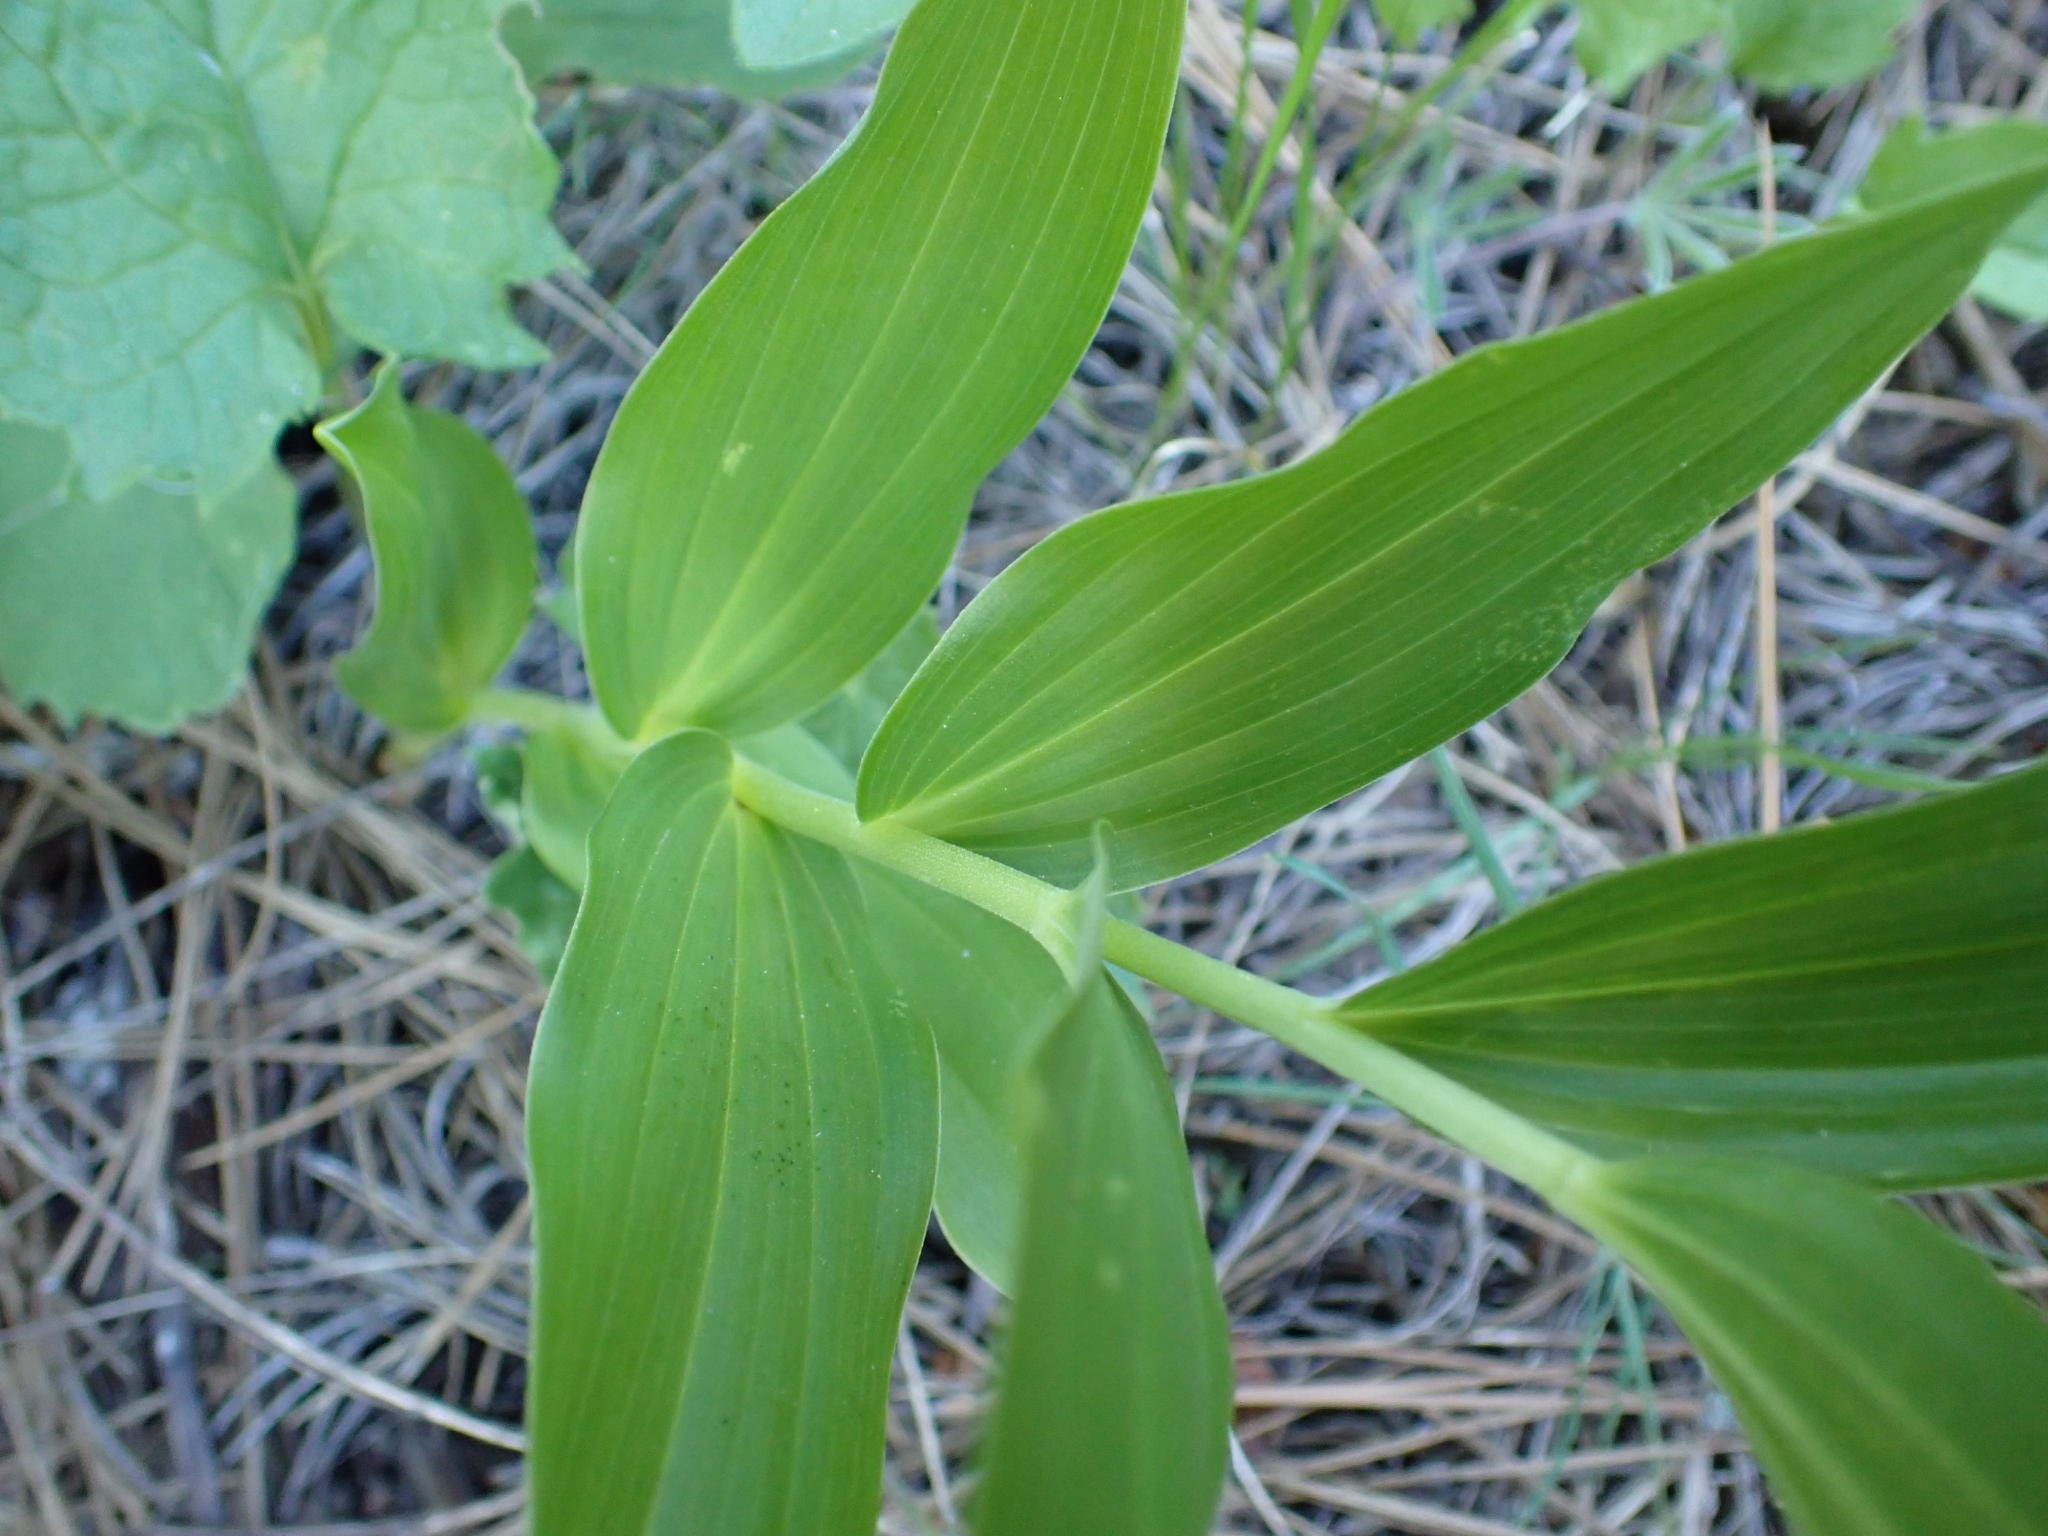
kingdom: Plantae
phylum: Tracheophyta
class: Liliopsida
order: Asparagales
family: Asparagaceae
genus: Maianthemum
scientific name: Maianthemum racemosum
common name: False spikenard
